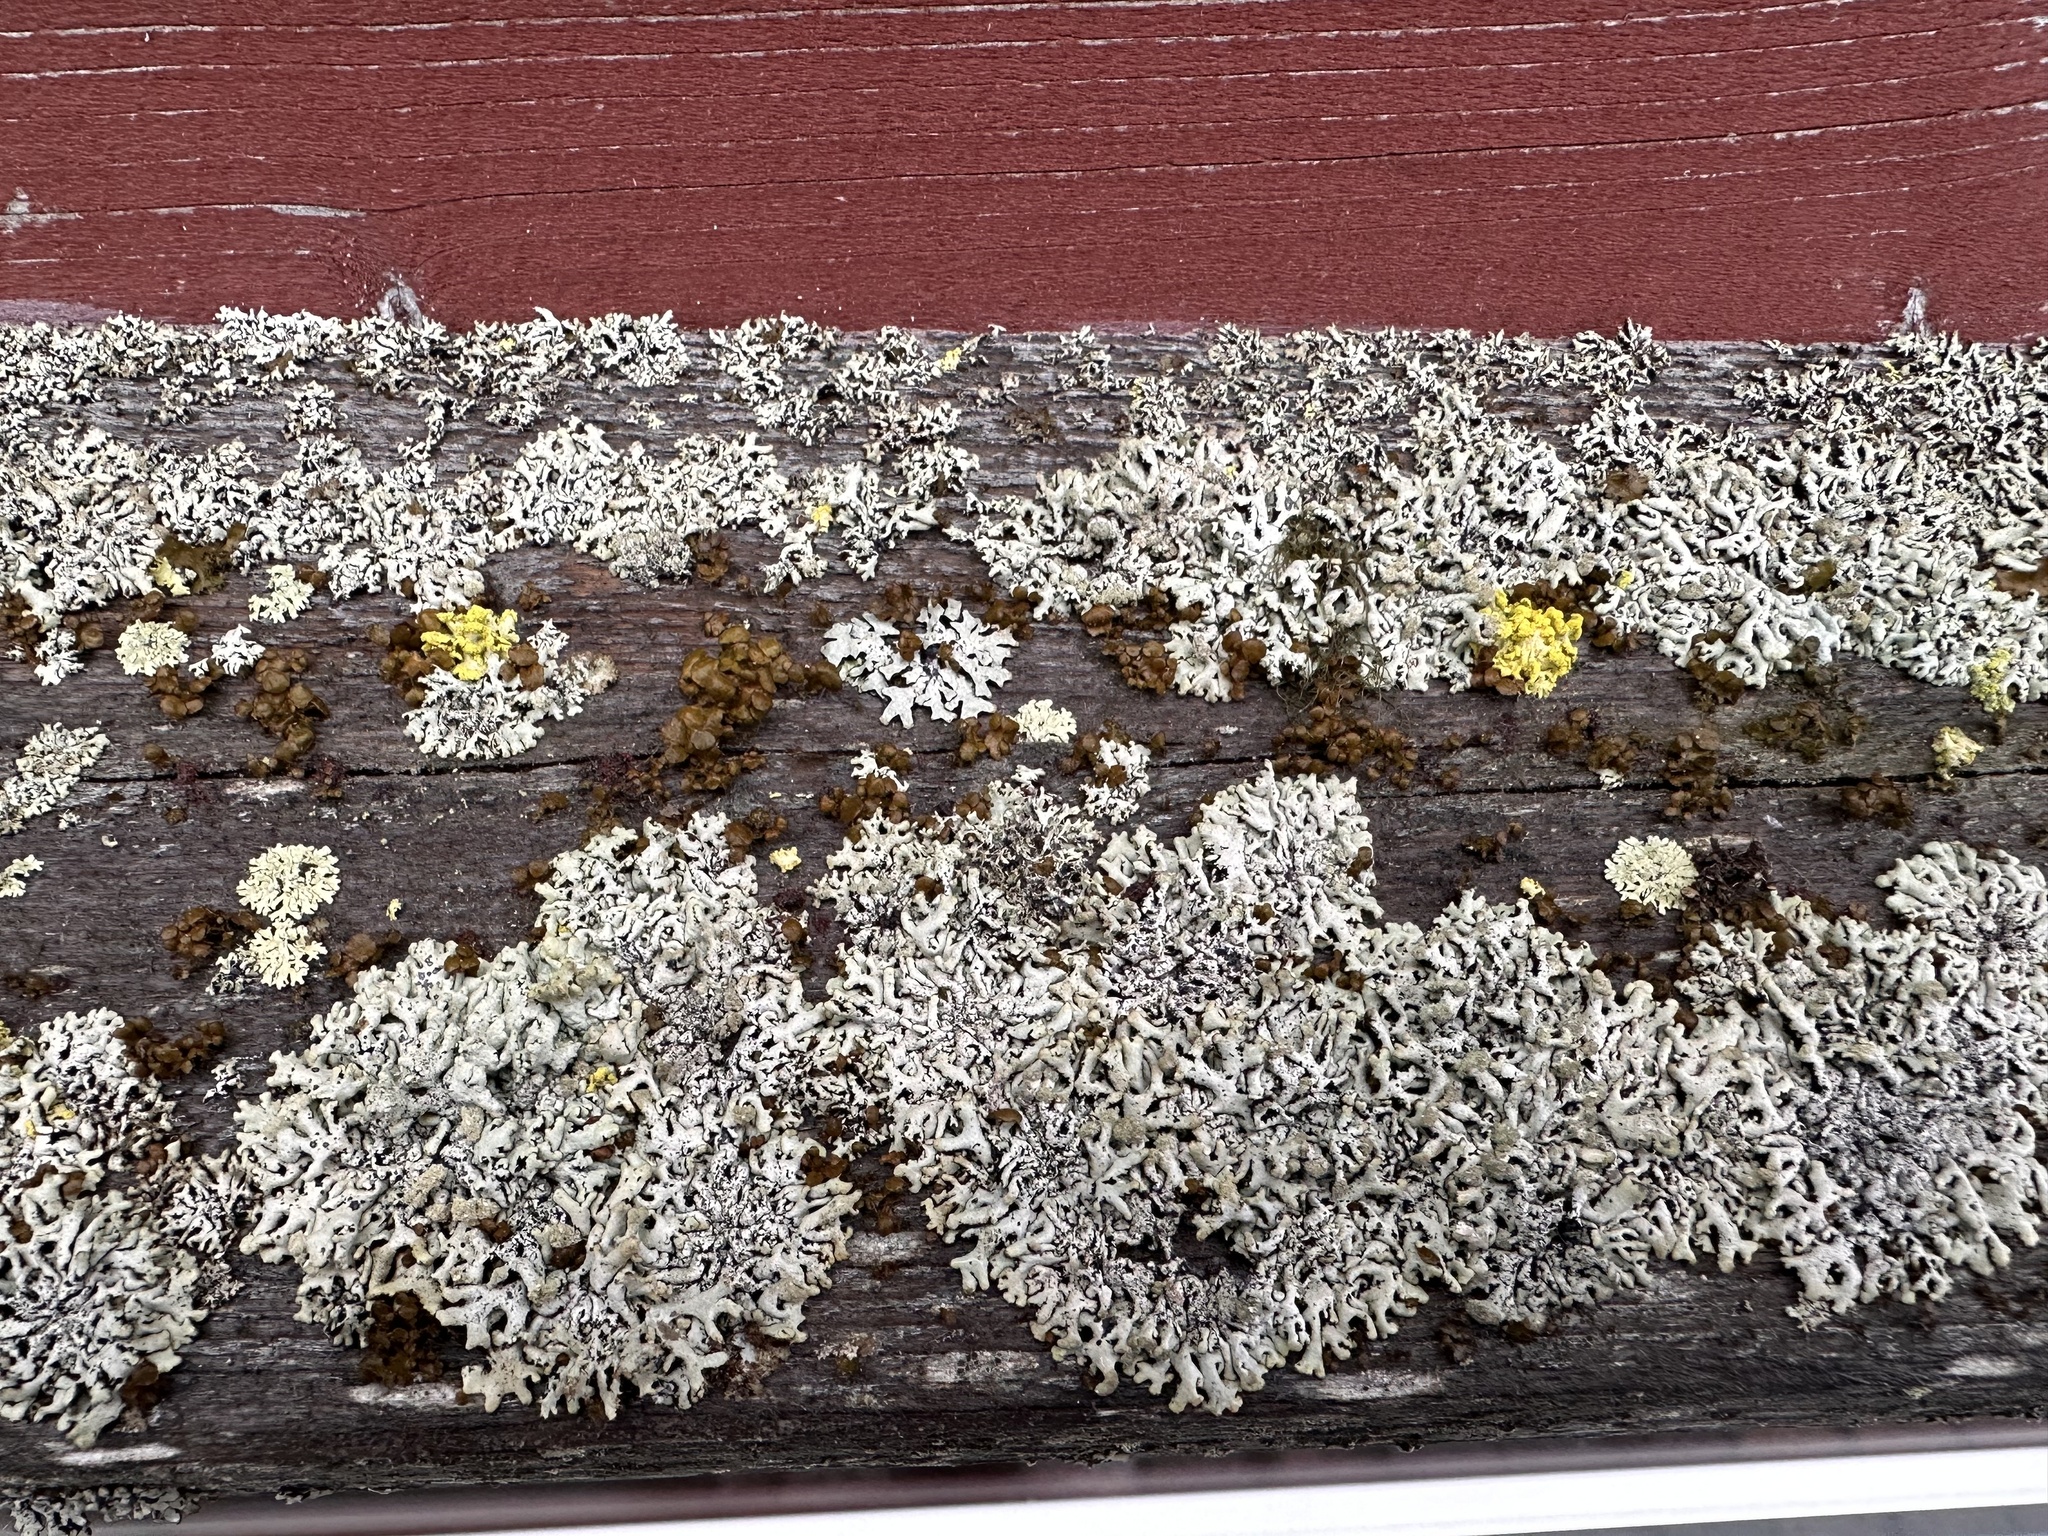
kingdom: Fungi
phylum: Ascomycota
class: Lecanoromycetes
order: Lecanorales
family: Parmeliaceae
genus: Hypogymnia
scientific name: Hypogymnia tubulosa
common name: Powder-headed tube lichen
